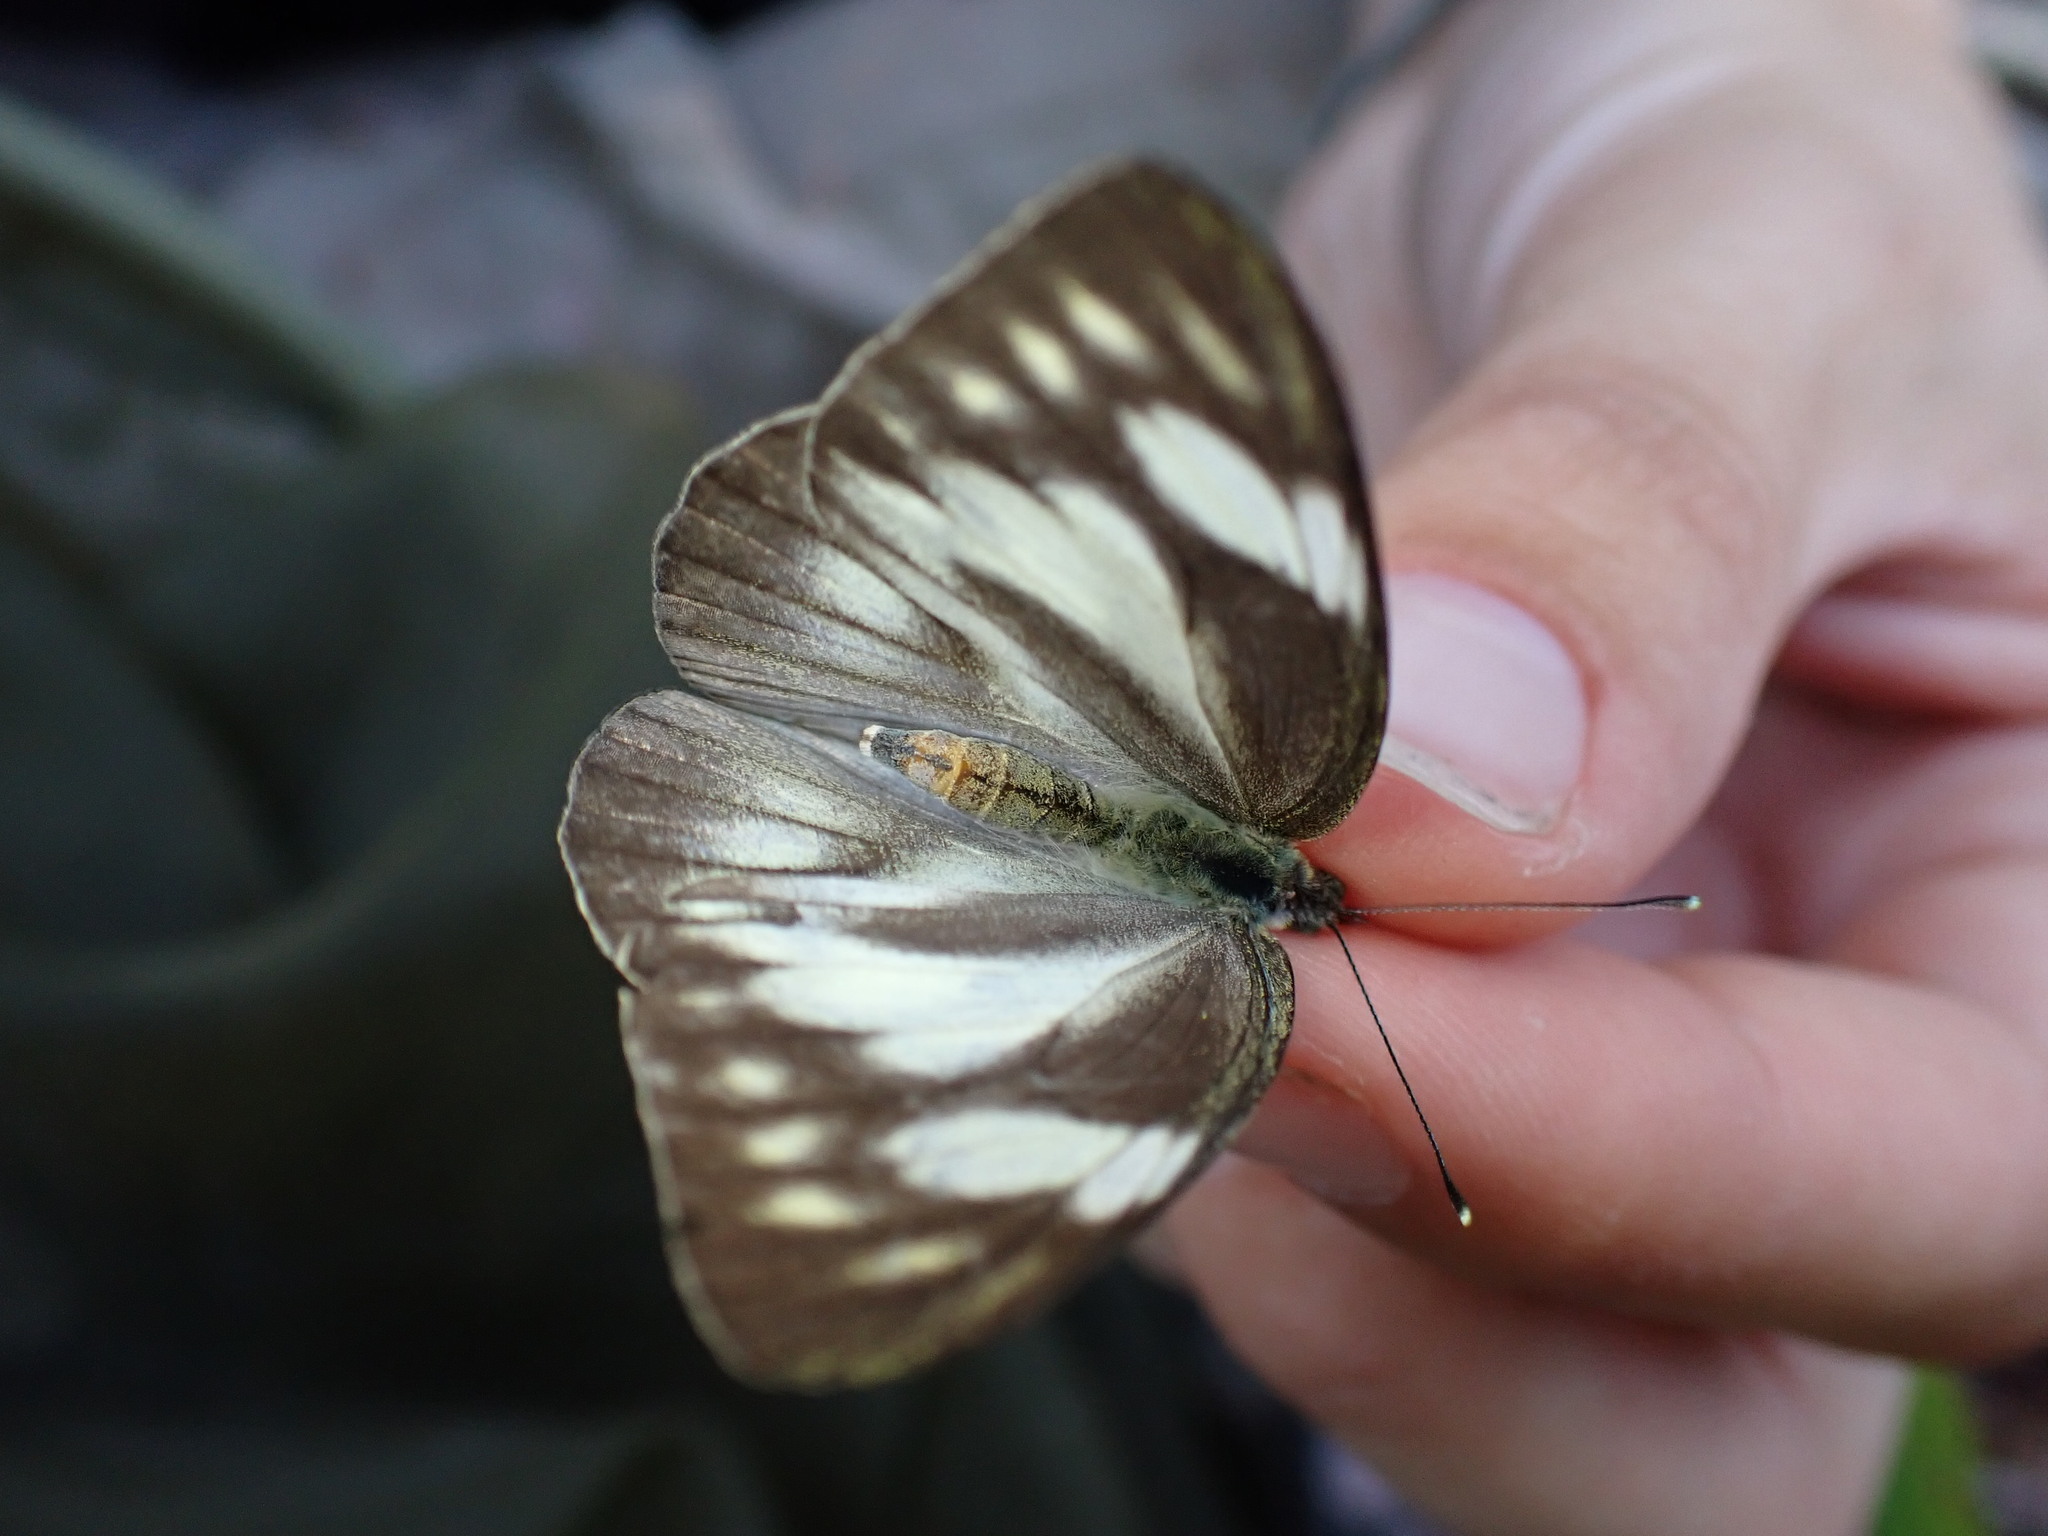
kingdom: Animalia
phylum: Arthropoda
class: Insecta
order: Lepidoptera
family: Pieridae
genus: Appias
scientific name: Appias libythea
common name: Striped albatross
